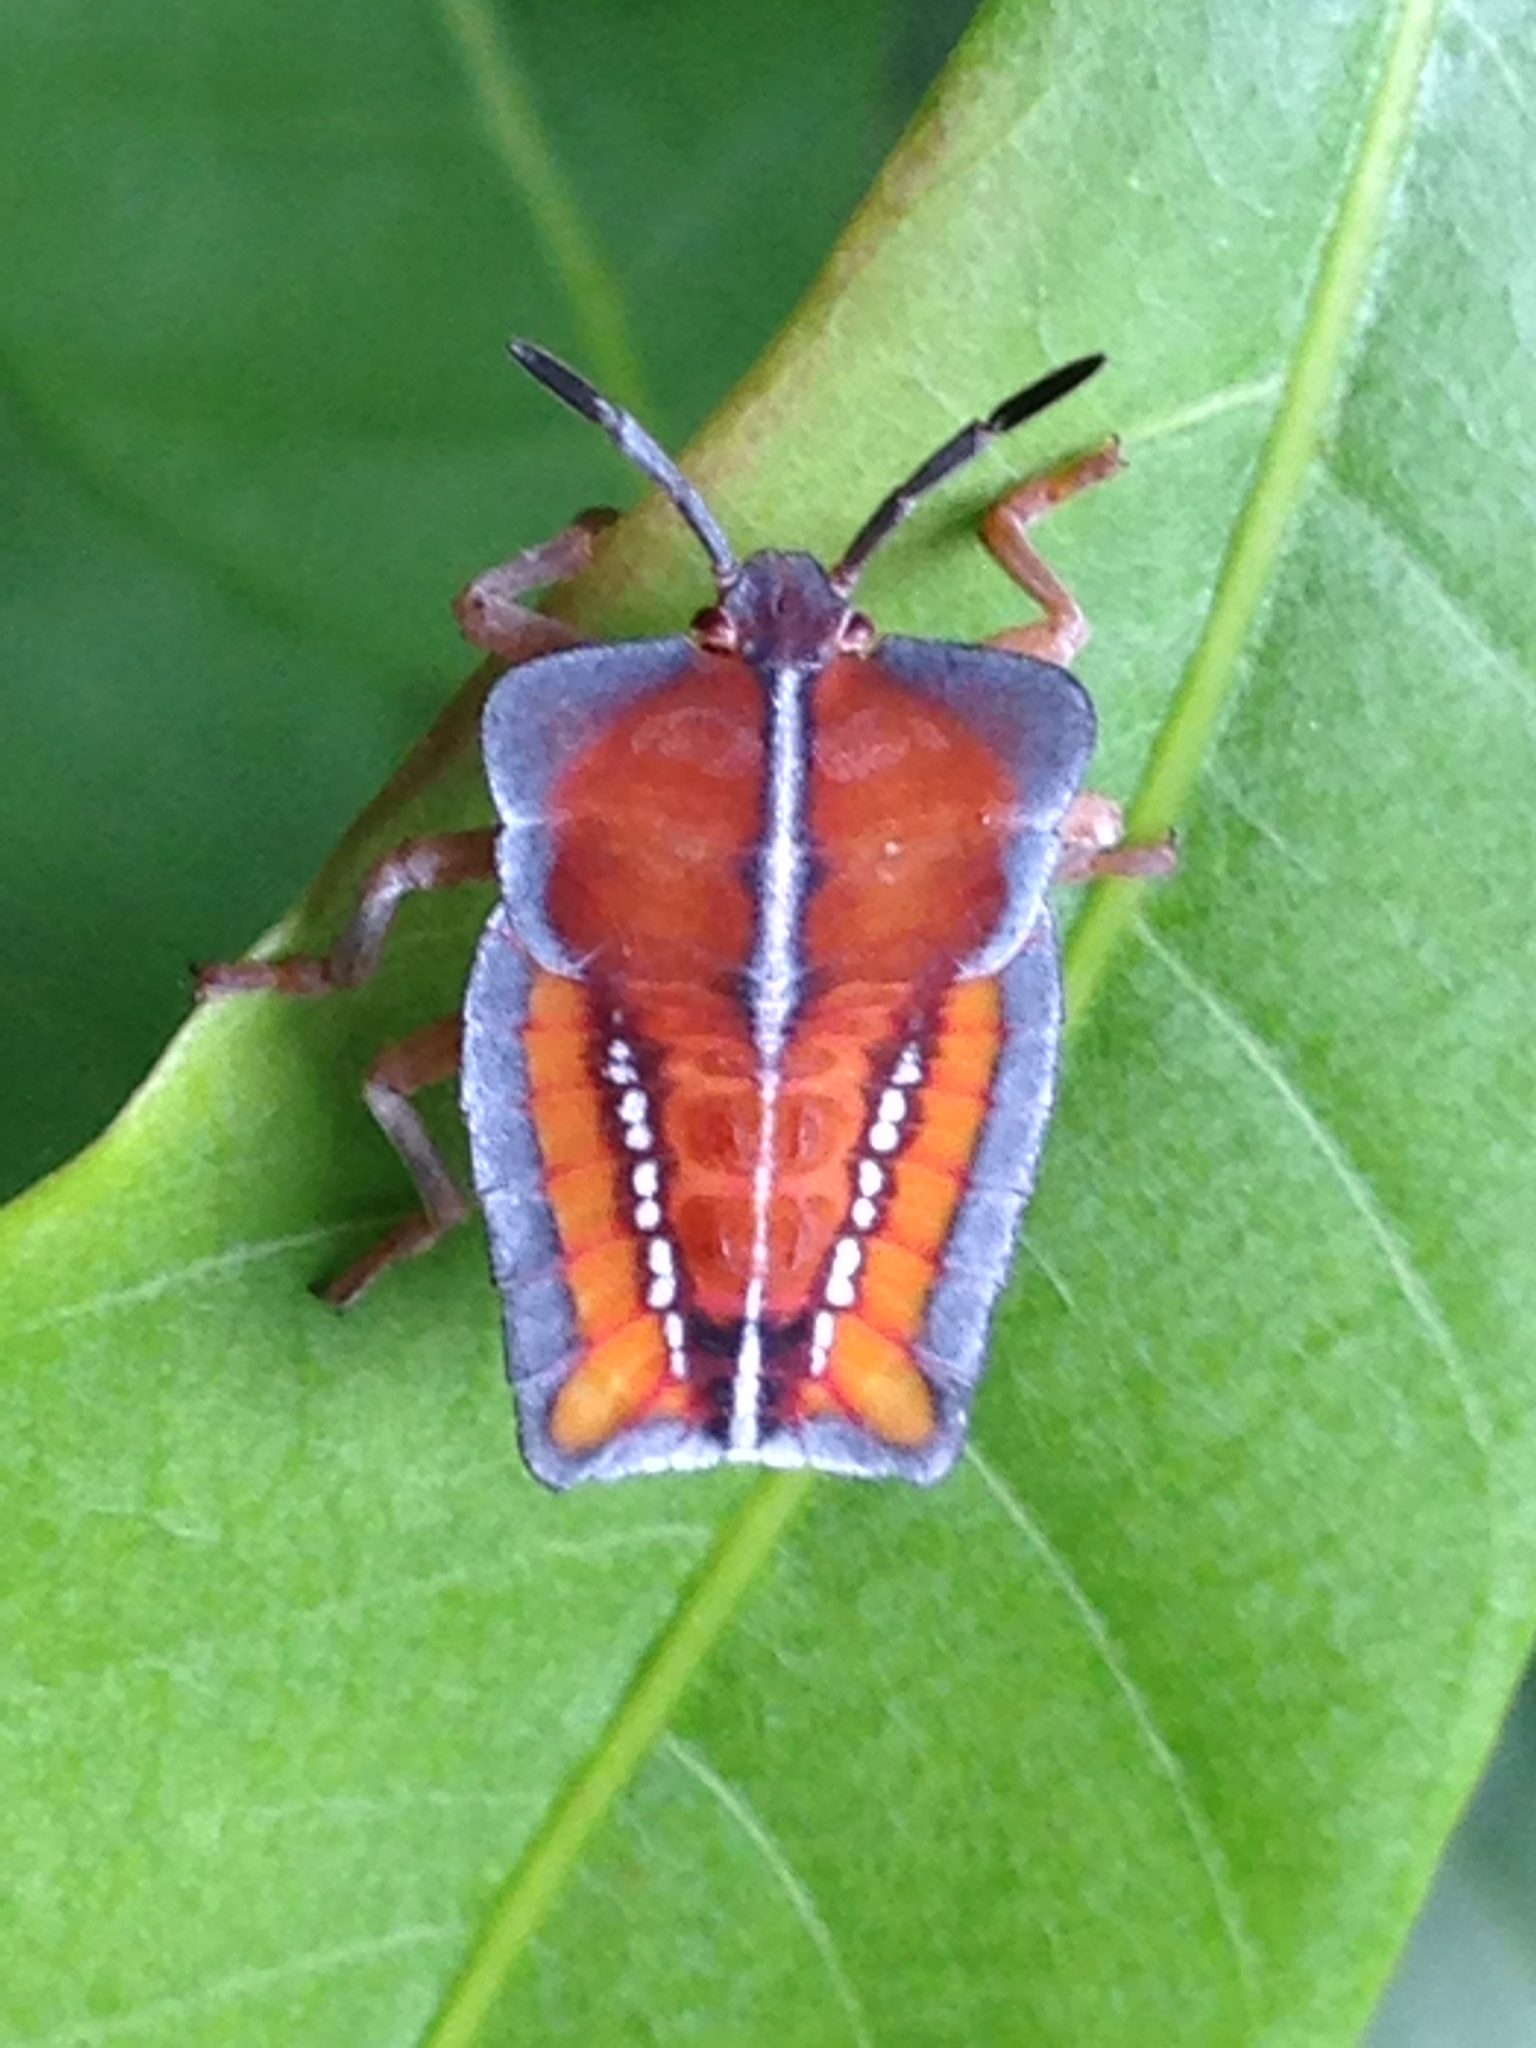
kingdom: Animalia
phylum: Arthropoda
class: Insecta
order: Hemiptera
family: Tessaratomidae
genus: Tessaratoma
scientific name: Tessaratoma papillosa
